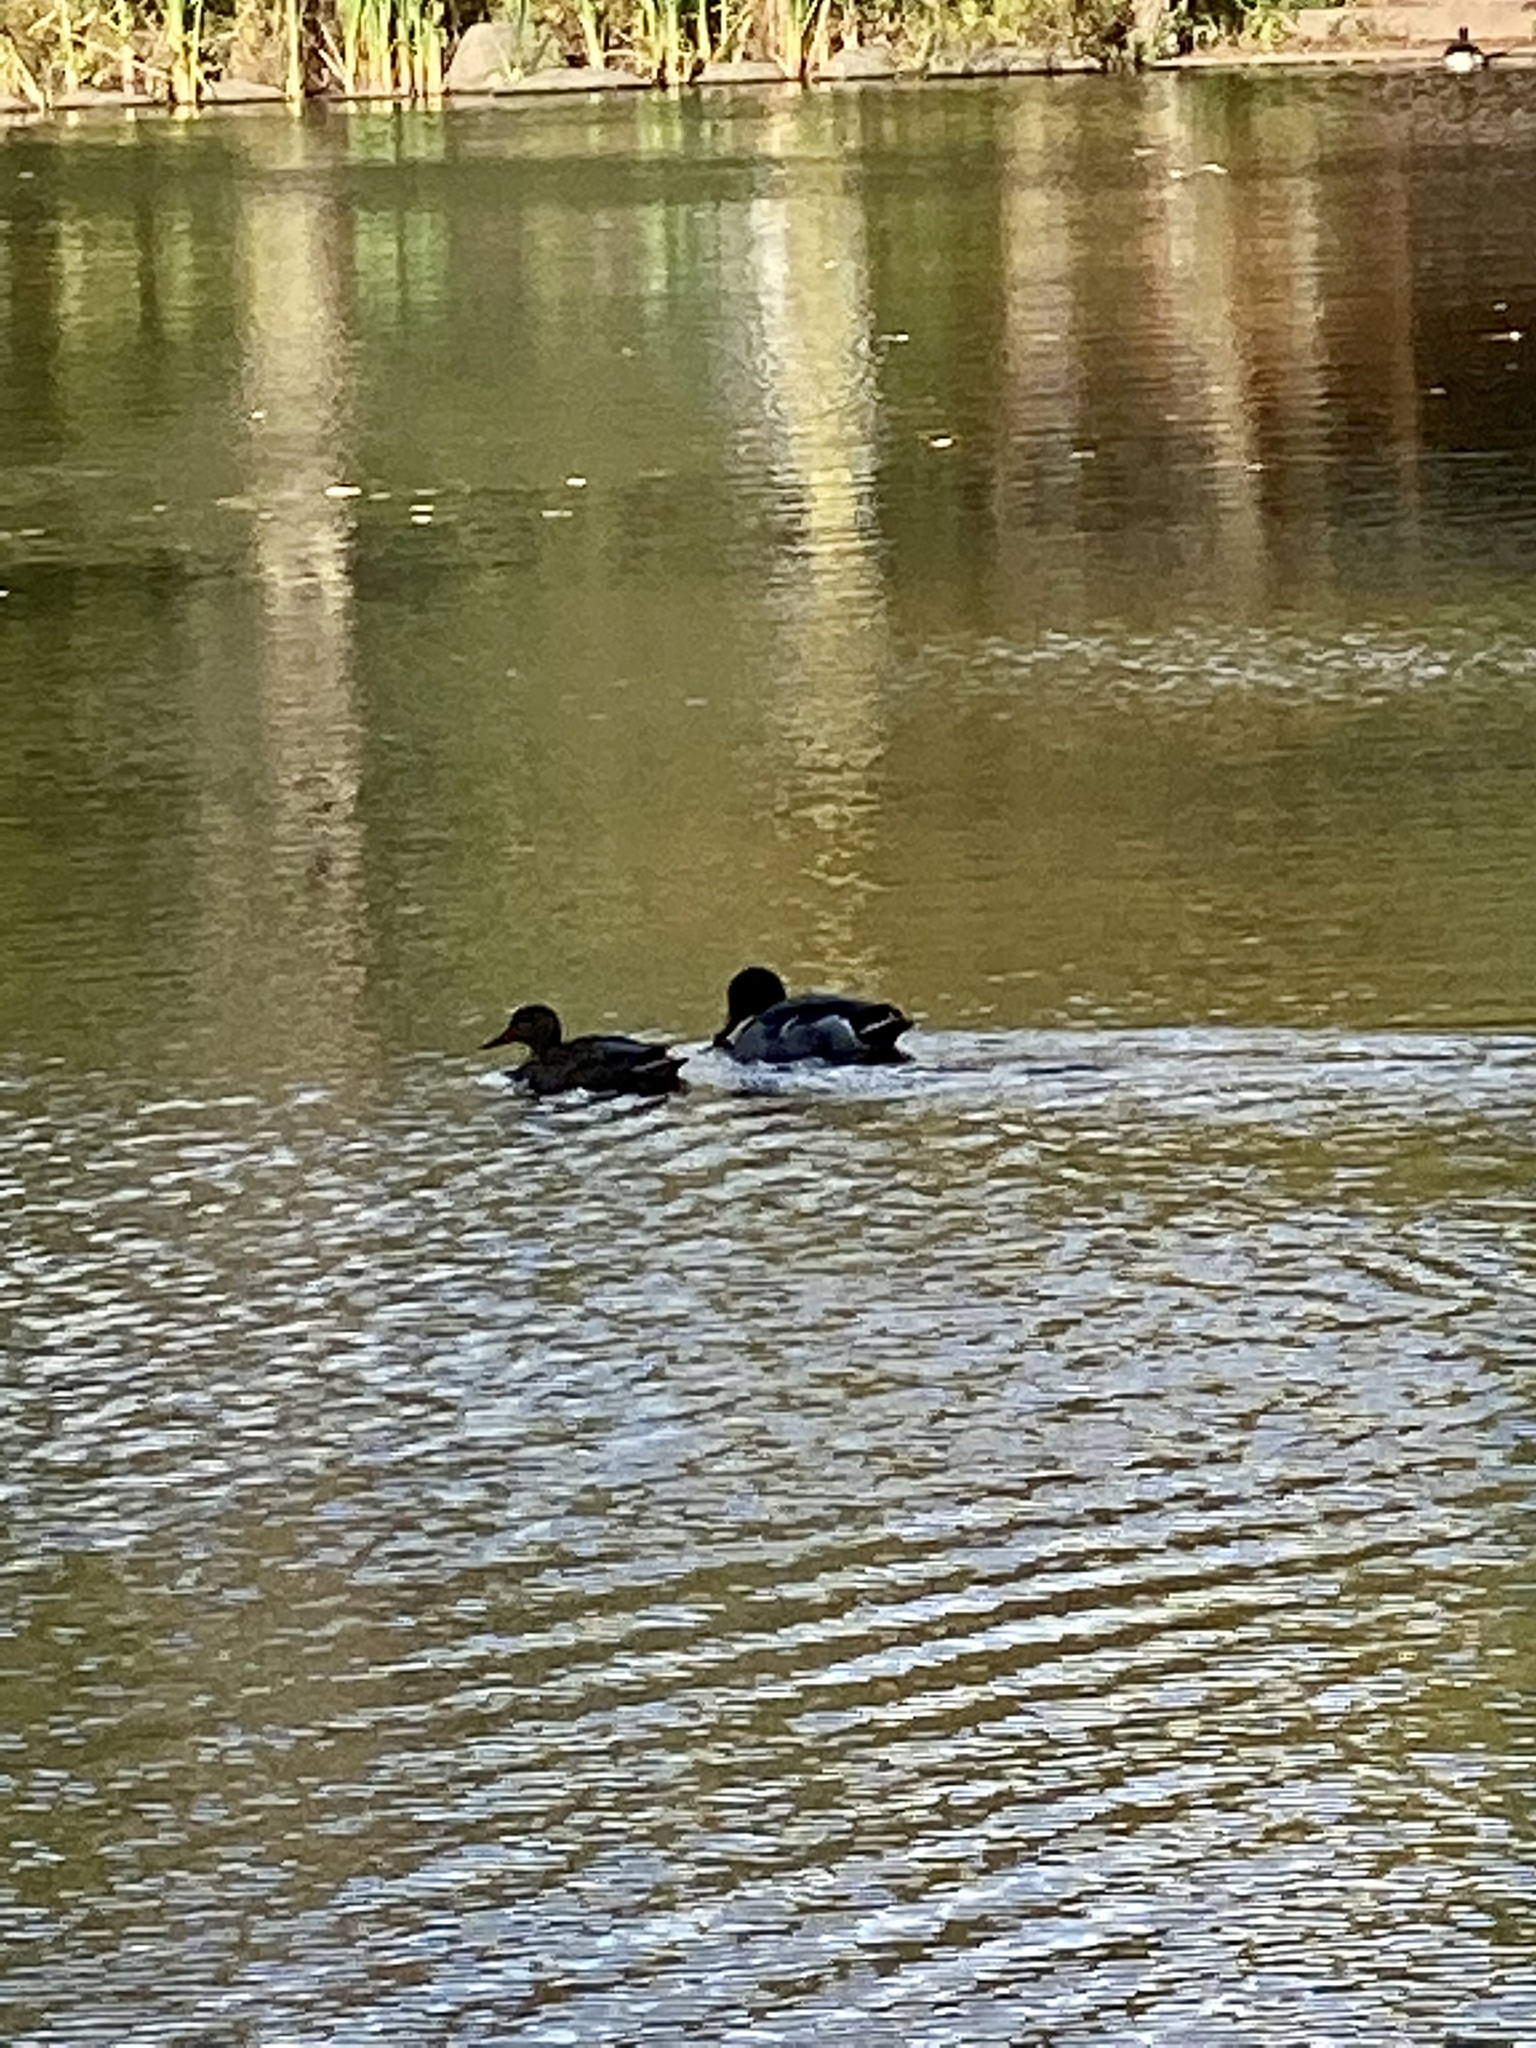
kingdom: Animalia
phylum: Chordata
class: Aves
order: Anseriformes
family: Anatidae
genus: Anas
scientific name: Anas platyrhynchos
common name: Mallard
